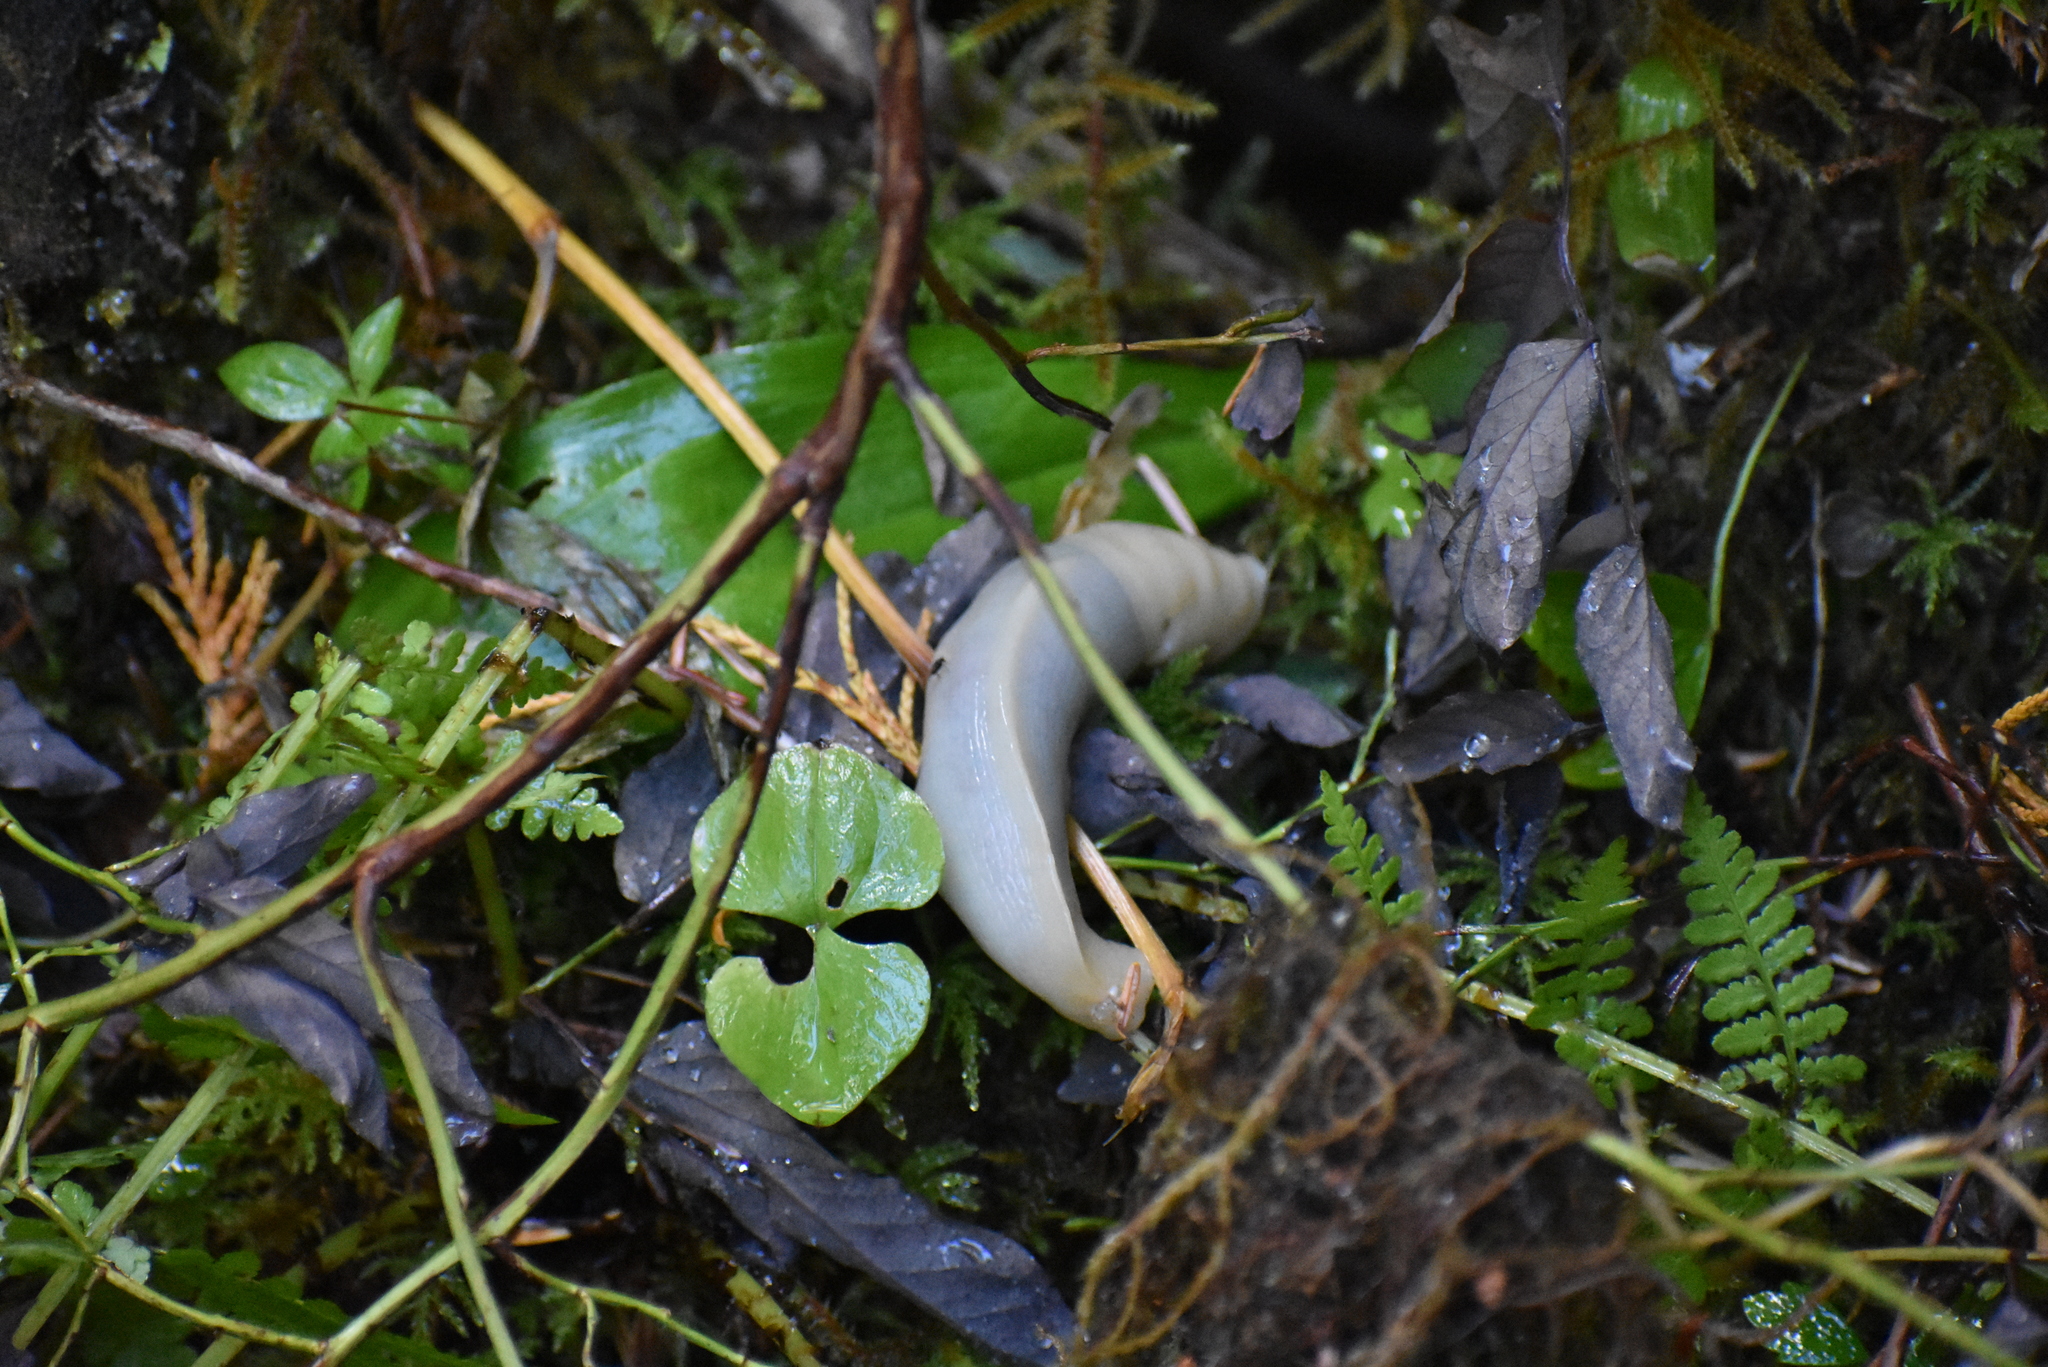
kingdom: Animalia
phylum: Mollusca
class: Gastropoda
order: Stylommatophora
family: Ariolimacidae
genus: Ariolimax
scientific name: Ariolimax columbianus
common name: Pacific banana slug
